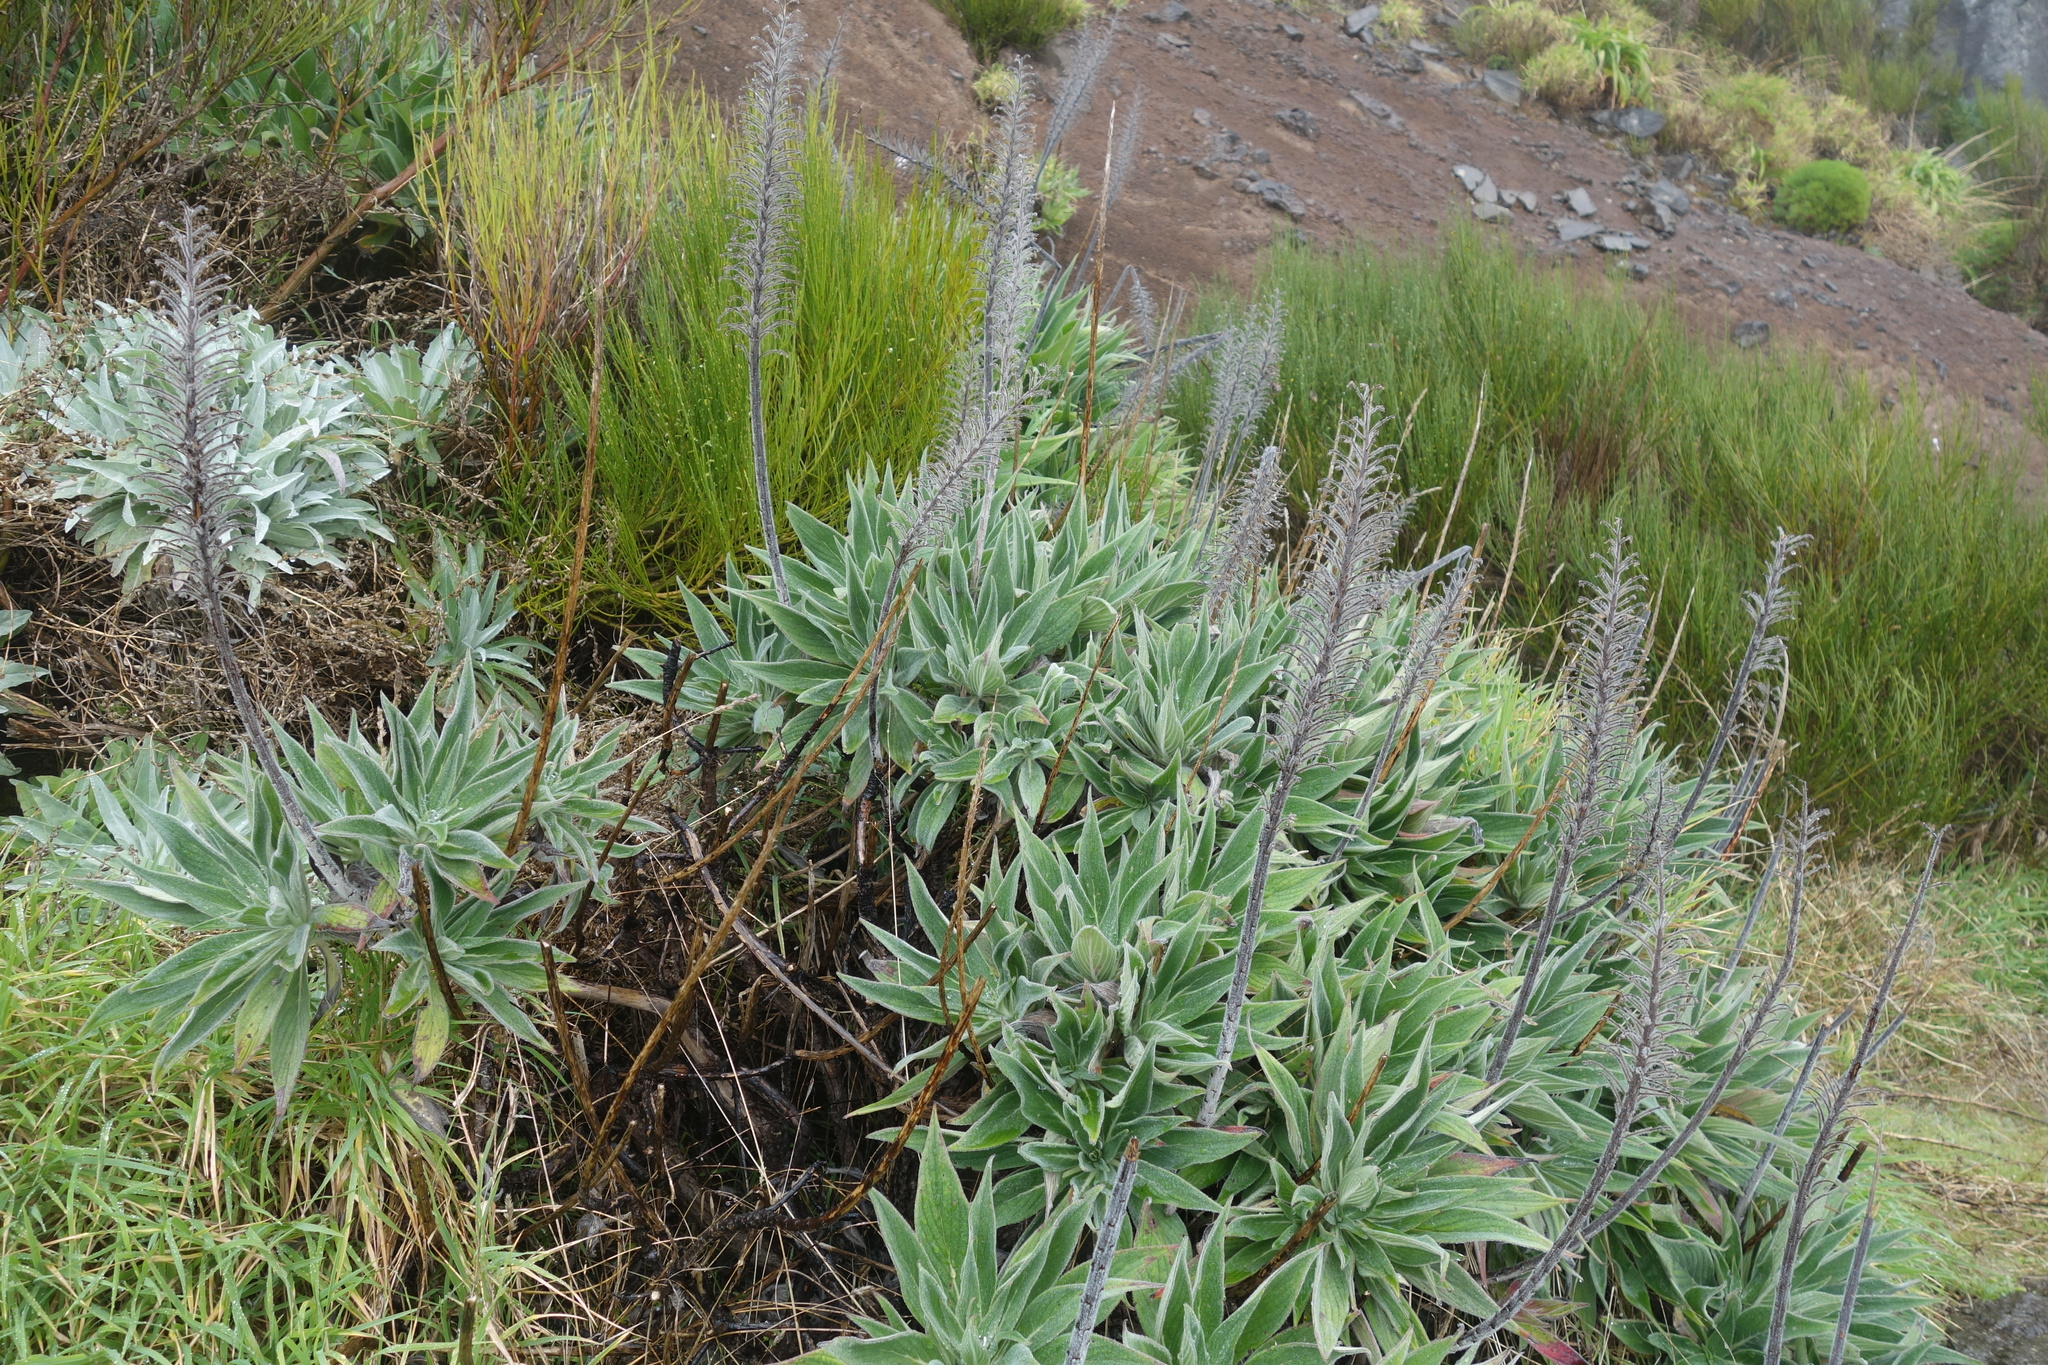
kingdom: Plantae
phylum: Tracheophyta
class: Magnoliopsida
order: Boraginales
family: Boraginaceae
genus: Echium
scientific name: Echium candicans
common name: Pride of madeira
